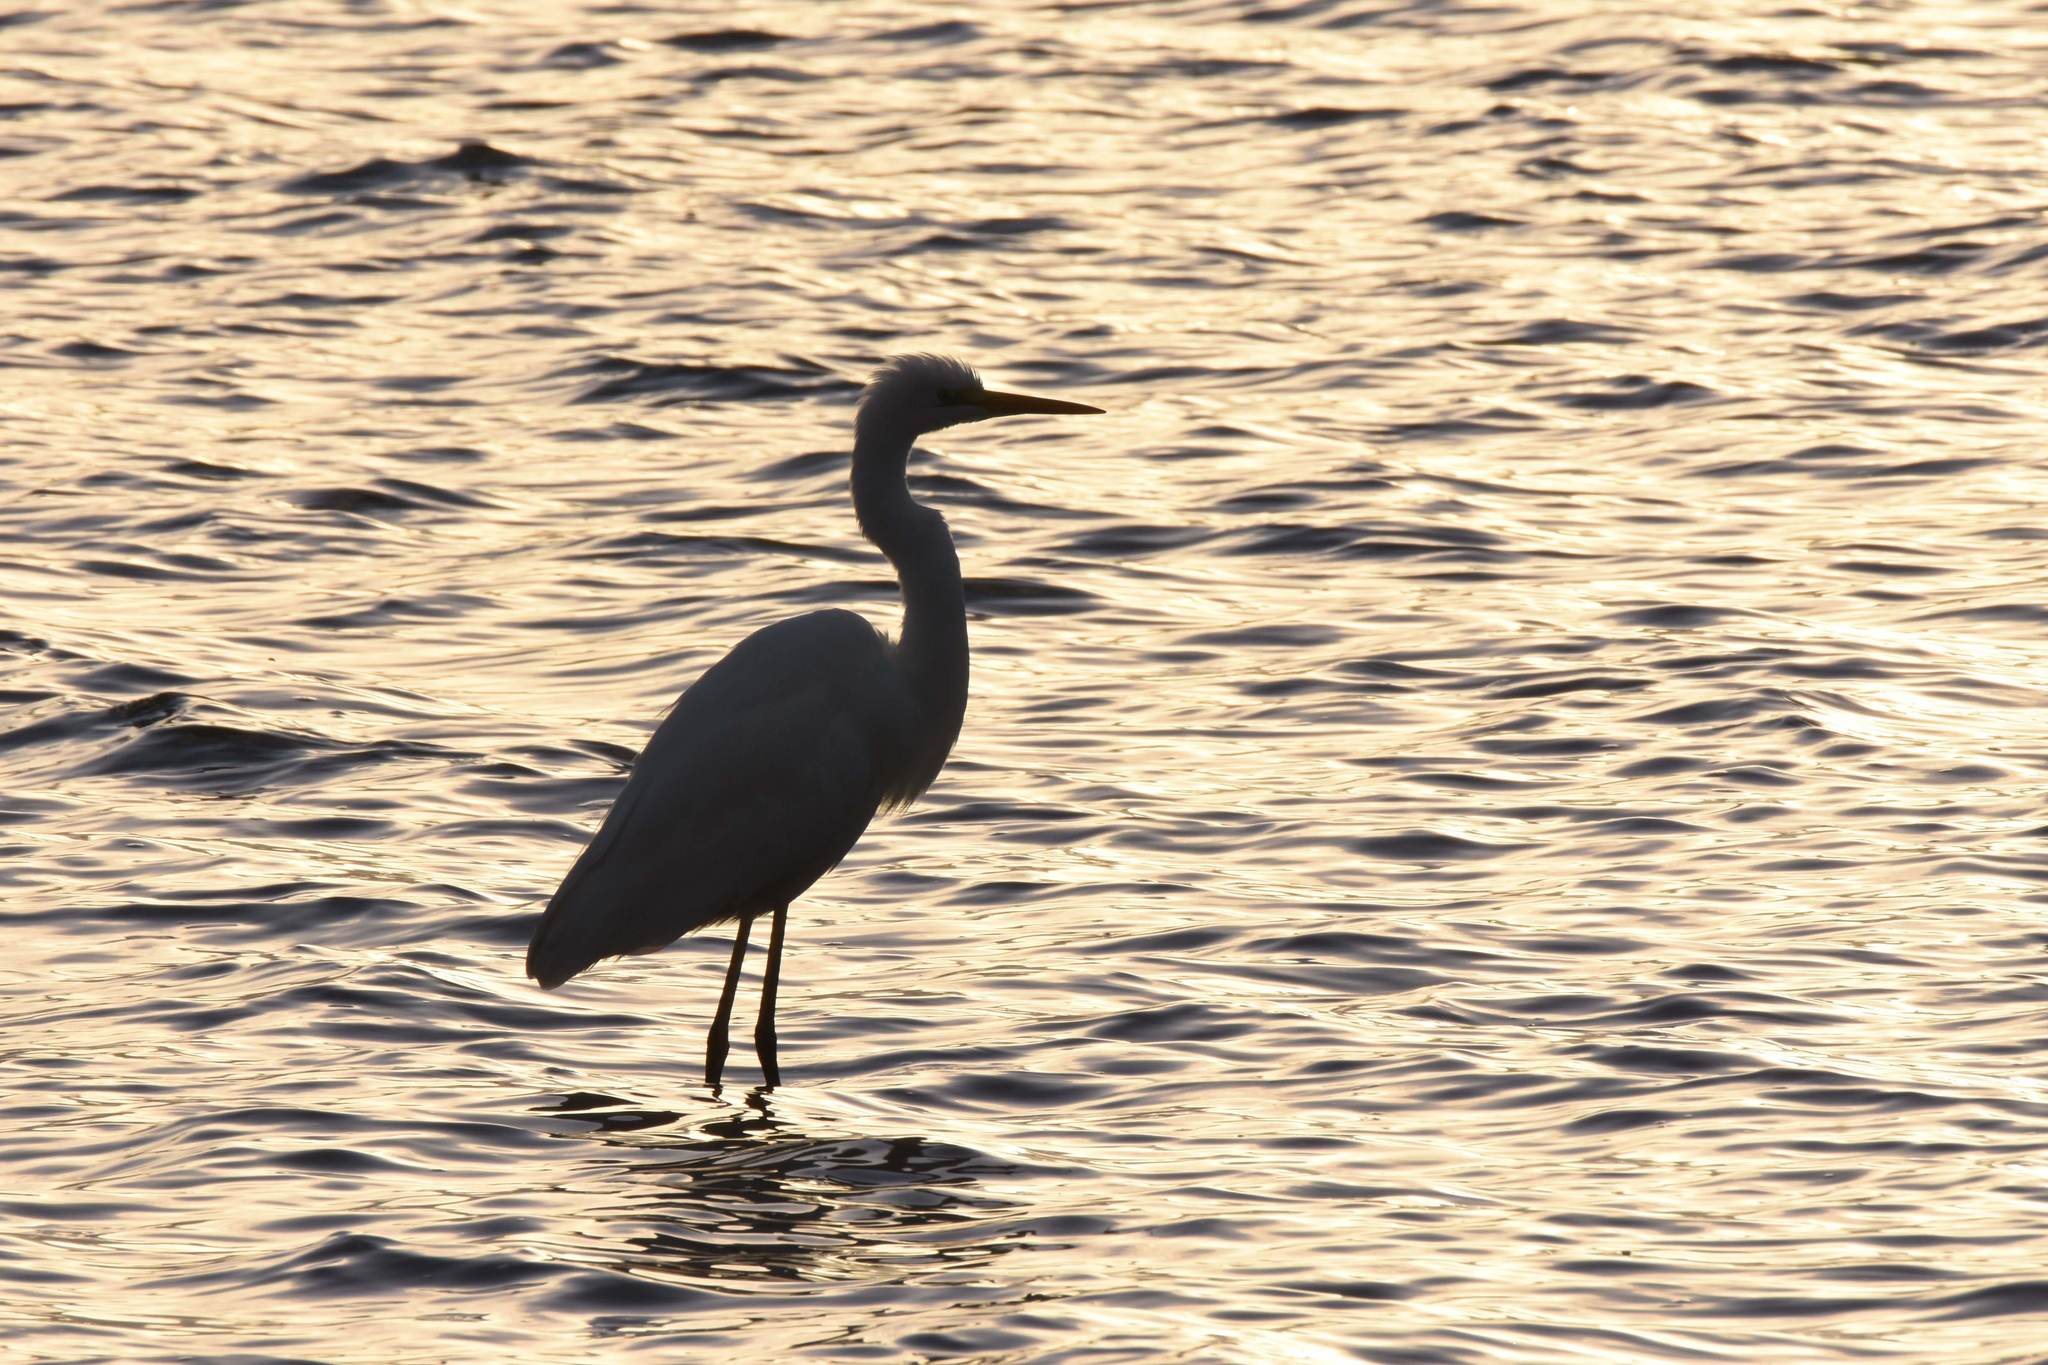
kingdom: Animalia
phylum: Chordata
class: Aves
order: Pelecaniformes
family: Ardeidae
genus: Ardea
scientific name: Ardea alba
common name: Great egret
